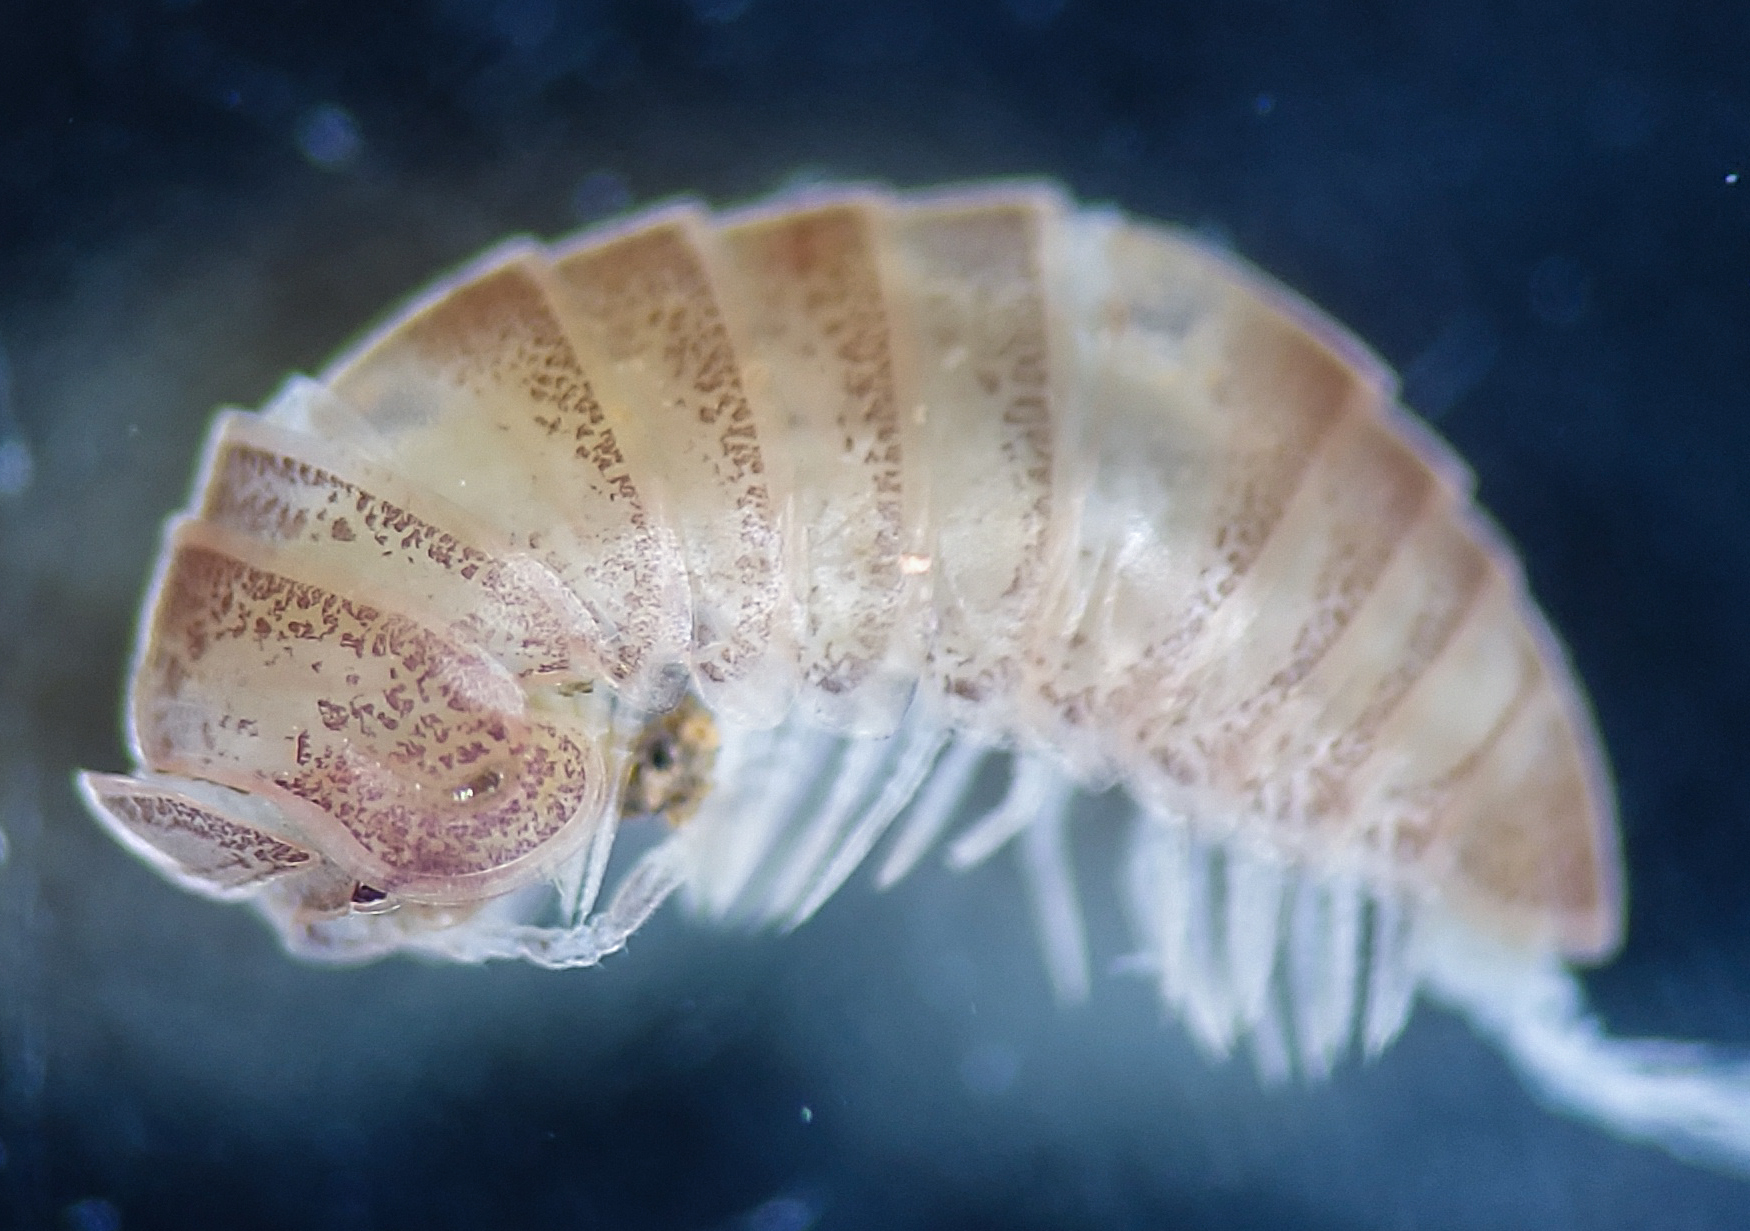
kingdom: Animalia
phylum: Arthropoda
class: Diplopoda
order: Glomerida
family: Glomeridae
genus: Onomeris
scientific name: Onomeris australora
